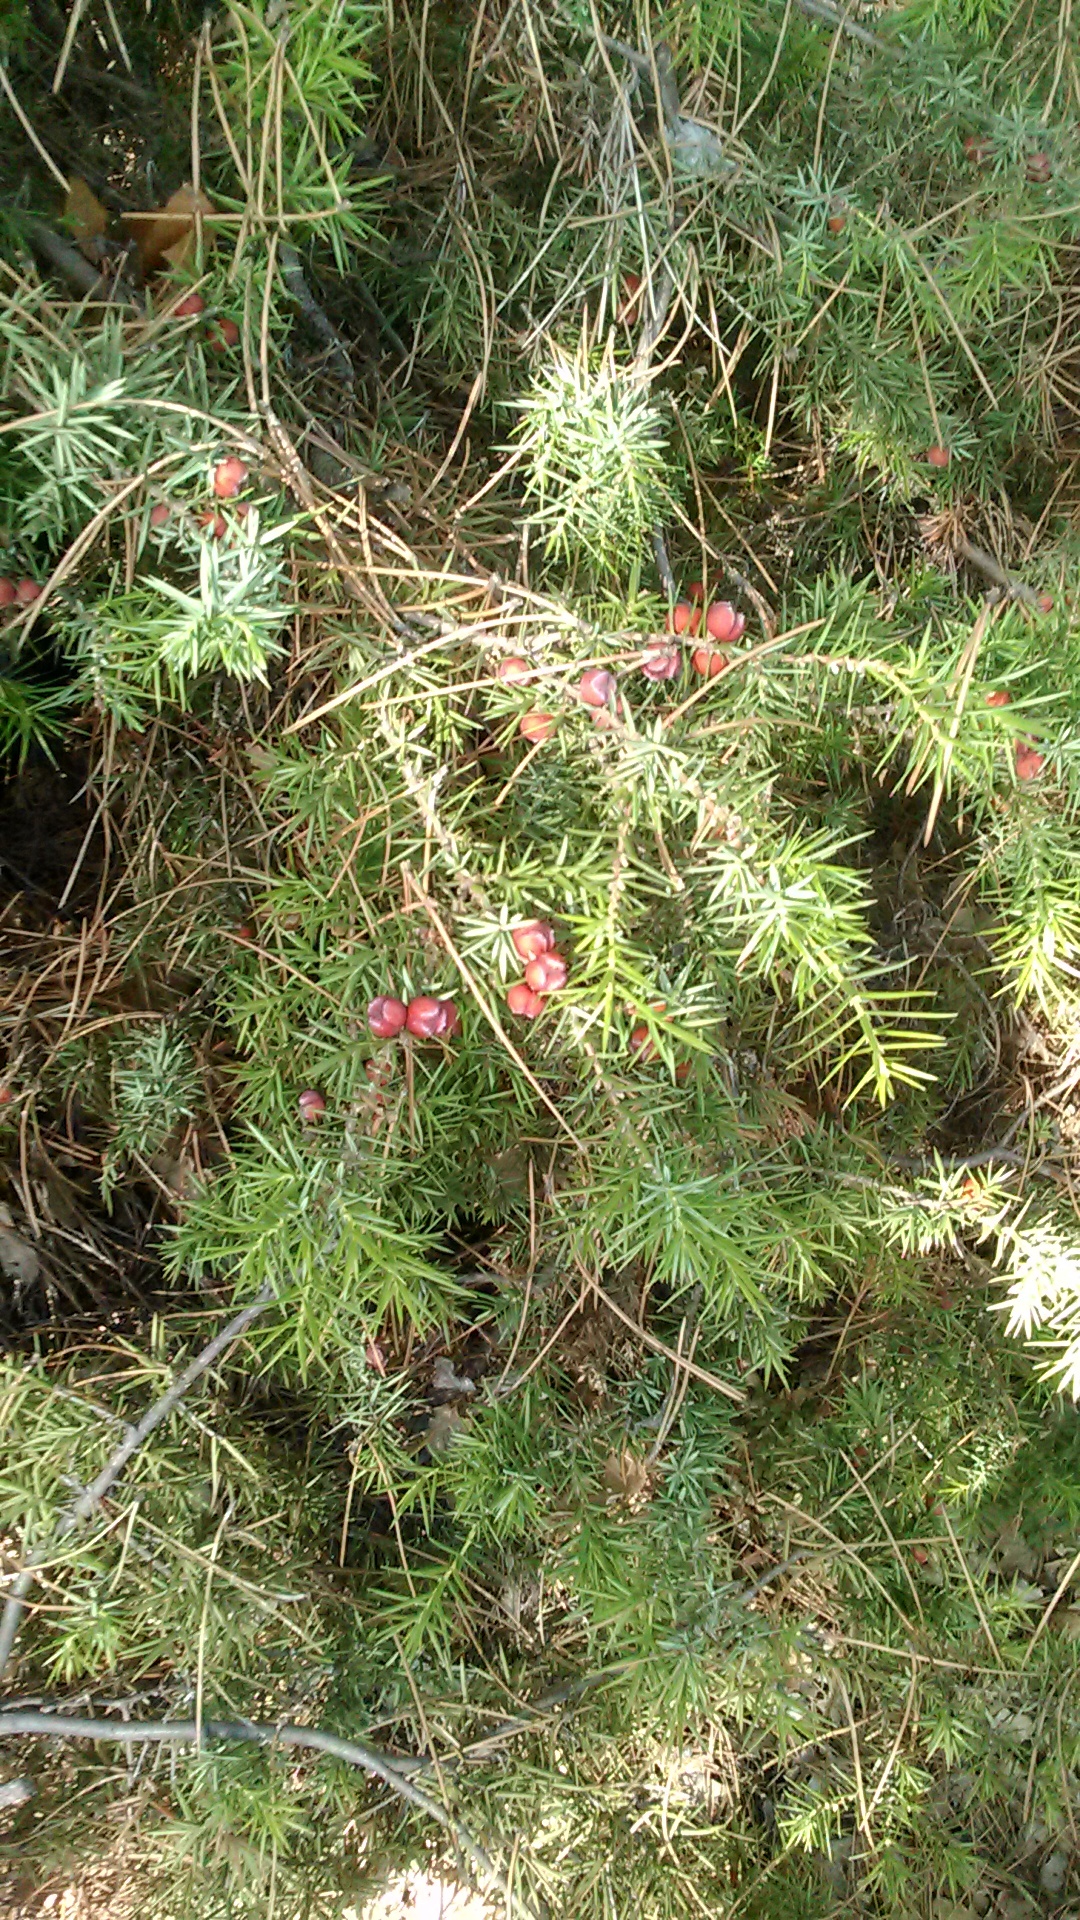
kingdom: Plantae
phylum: Tracheophyta
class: Pinopsida
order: Pinales
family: Cupressaceae
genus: Juniperus
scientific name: Juniperus oxycedrus
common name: Prickly juniper
